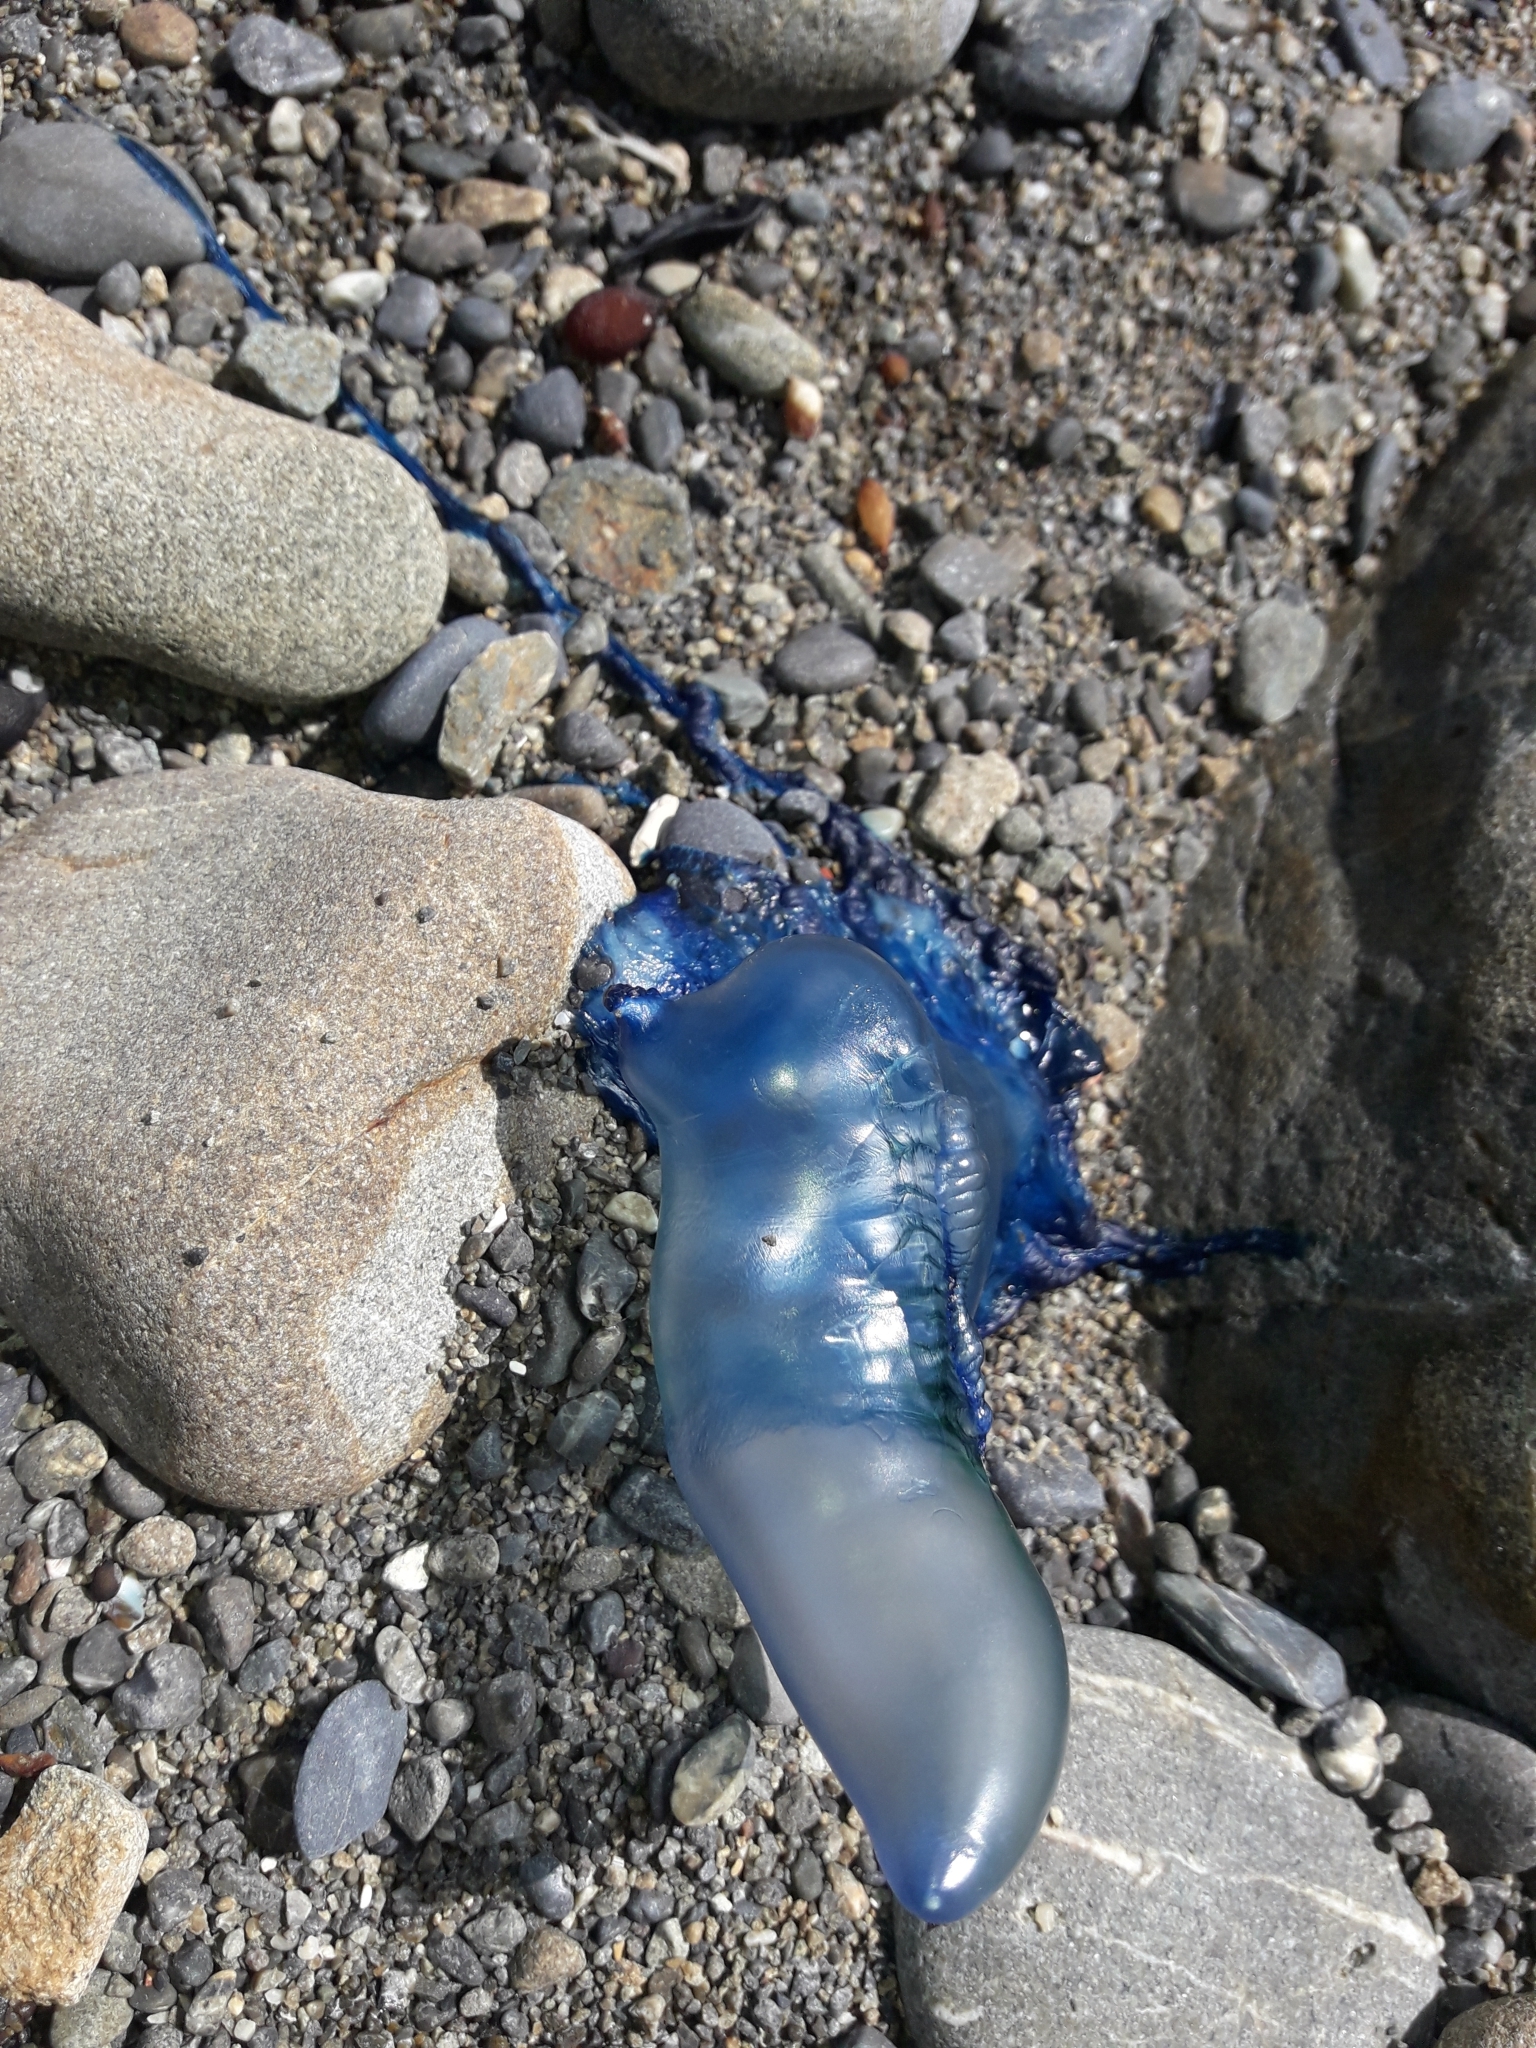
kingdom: Animalia
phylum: Cnidaria
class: Hydrozoa
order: Siphonophorae
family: Physaliidae
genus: Physalia
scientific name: Physalia physalis
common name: Portuguese man-of-war
